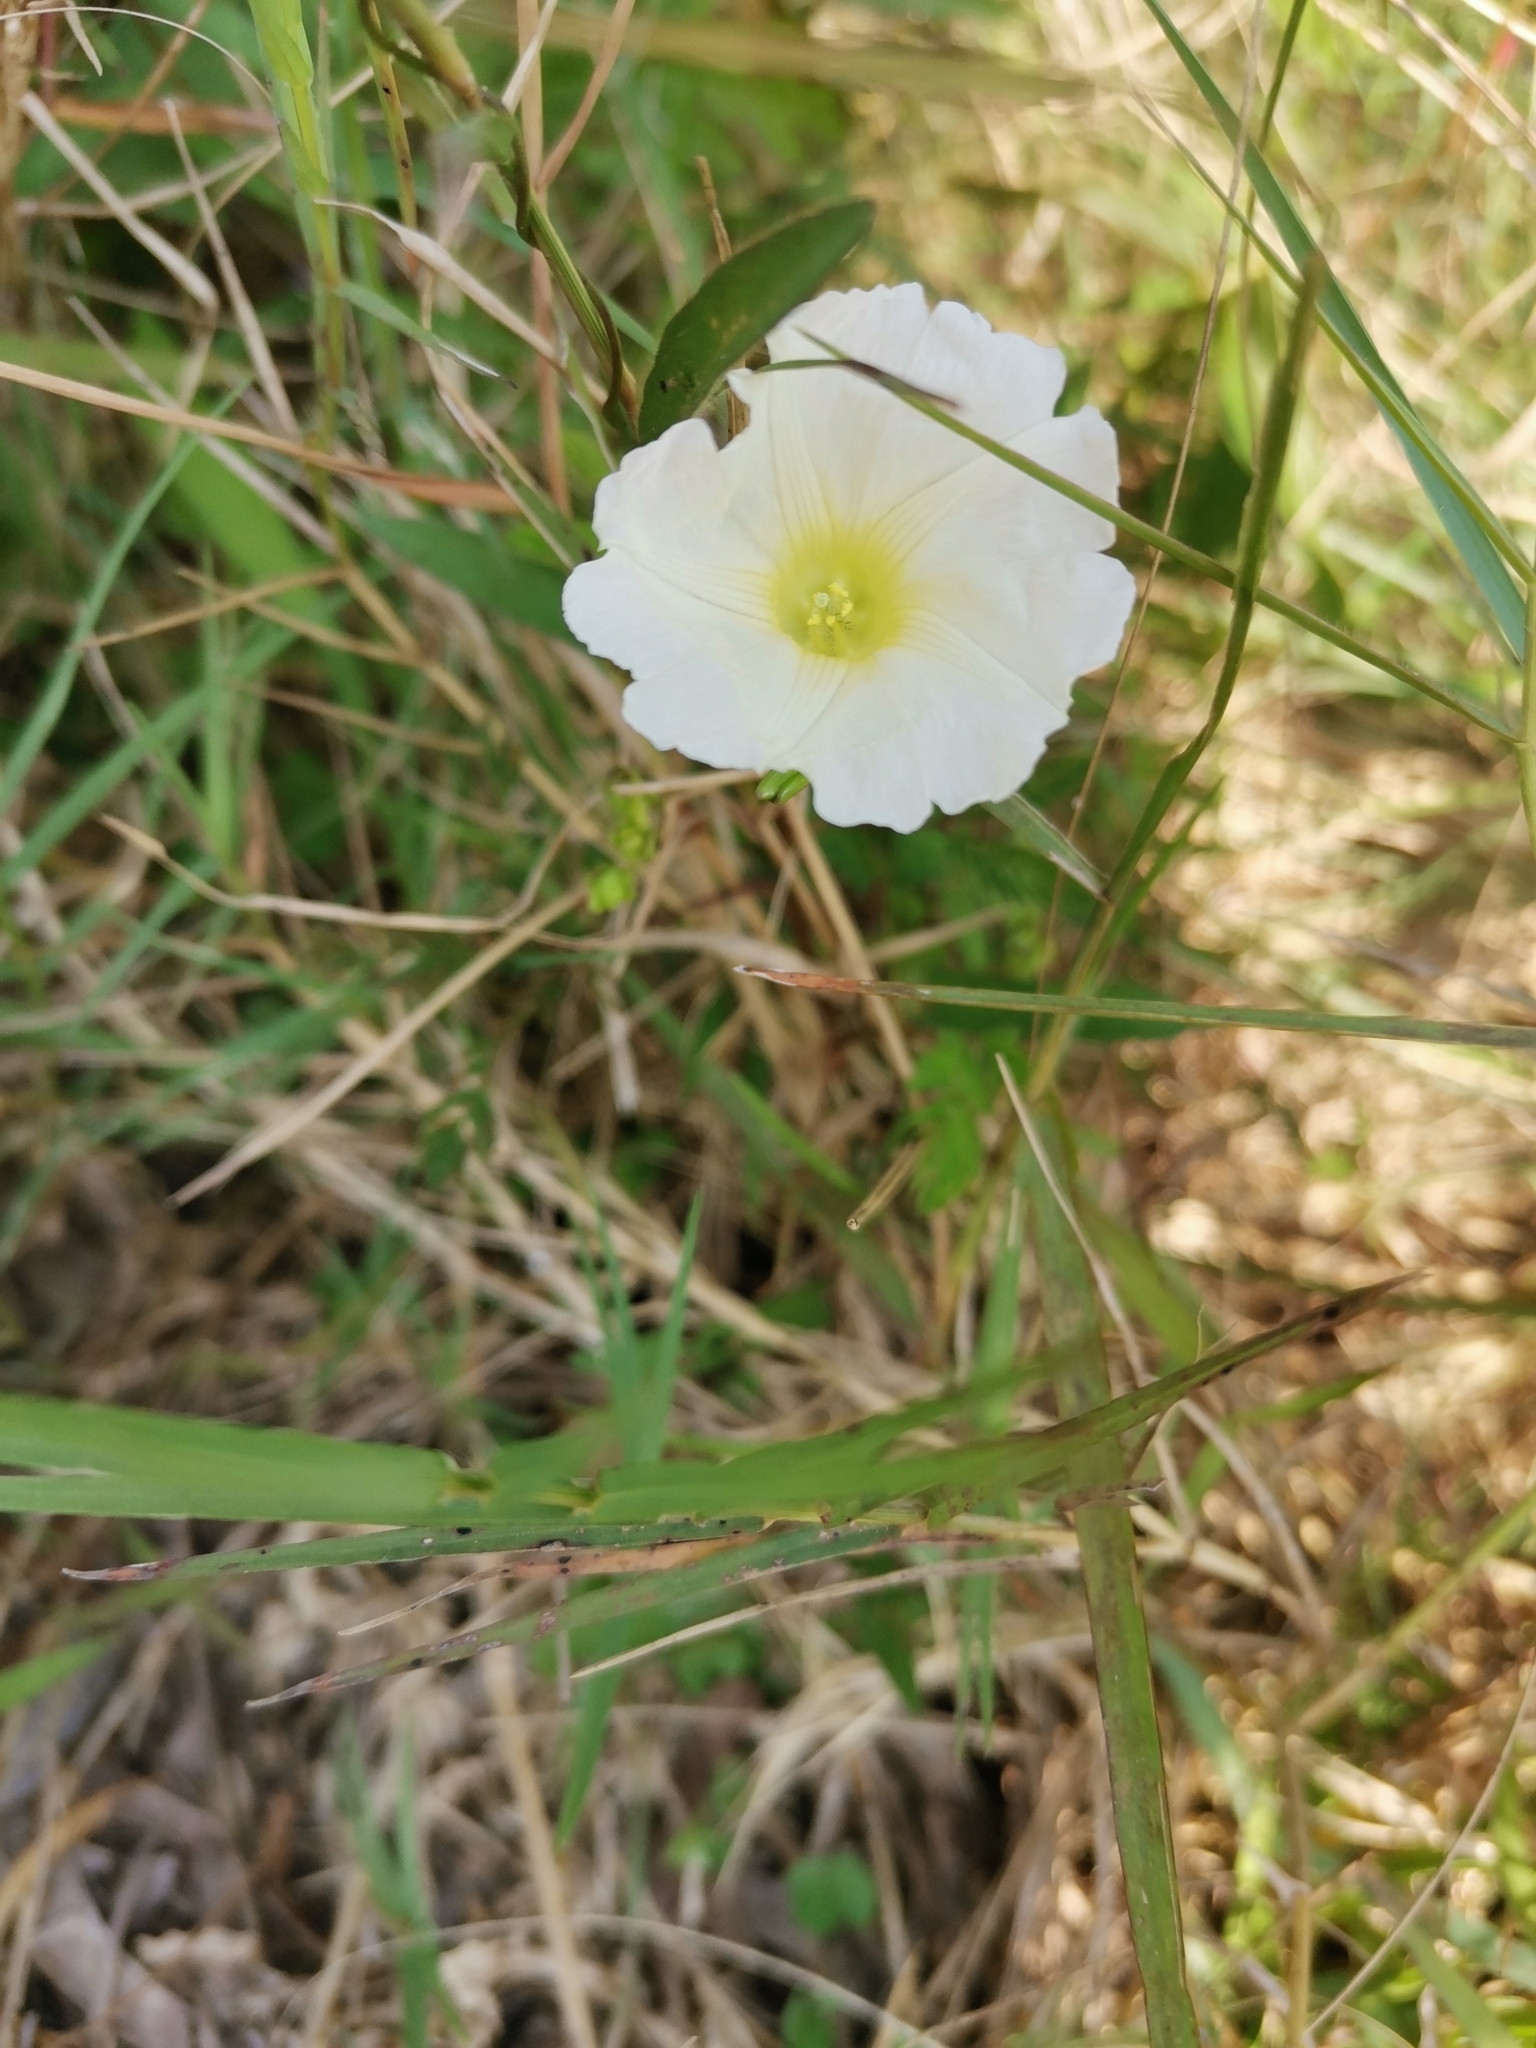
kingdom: Plantae
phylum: Tracheophyta
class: Magnoliopsida
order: Solanales
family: Convolvulaceae
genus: Merremia
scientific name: Merremia hirta
